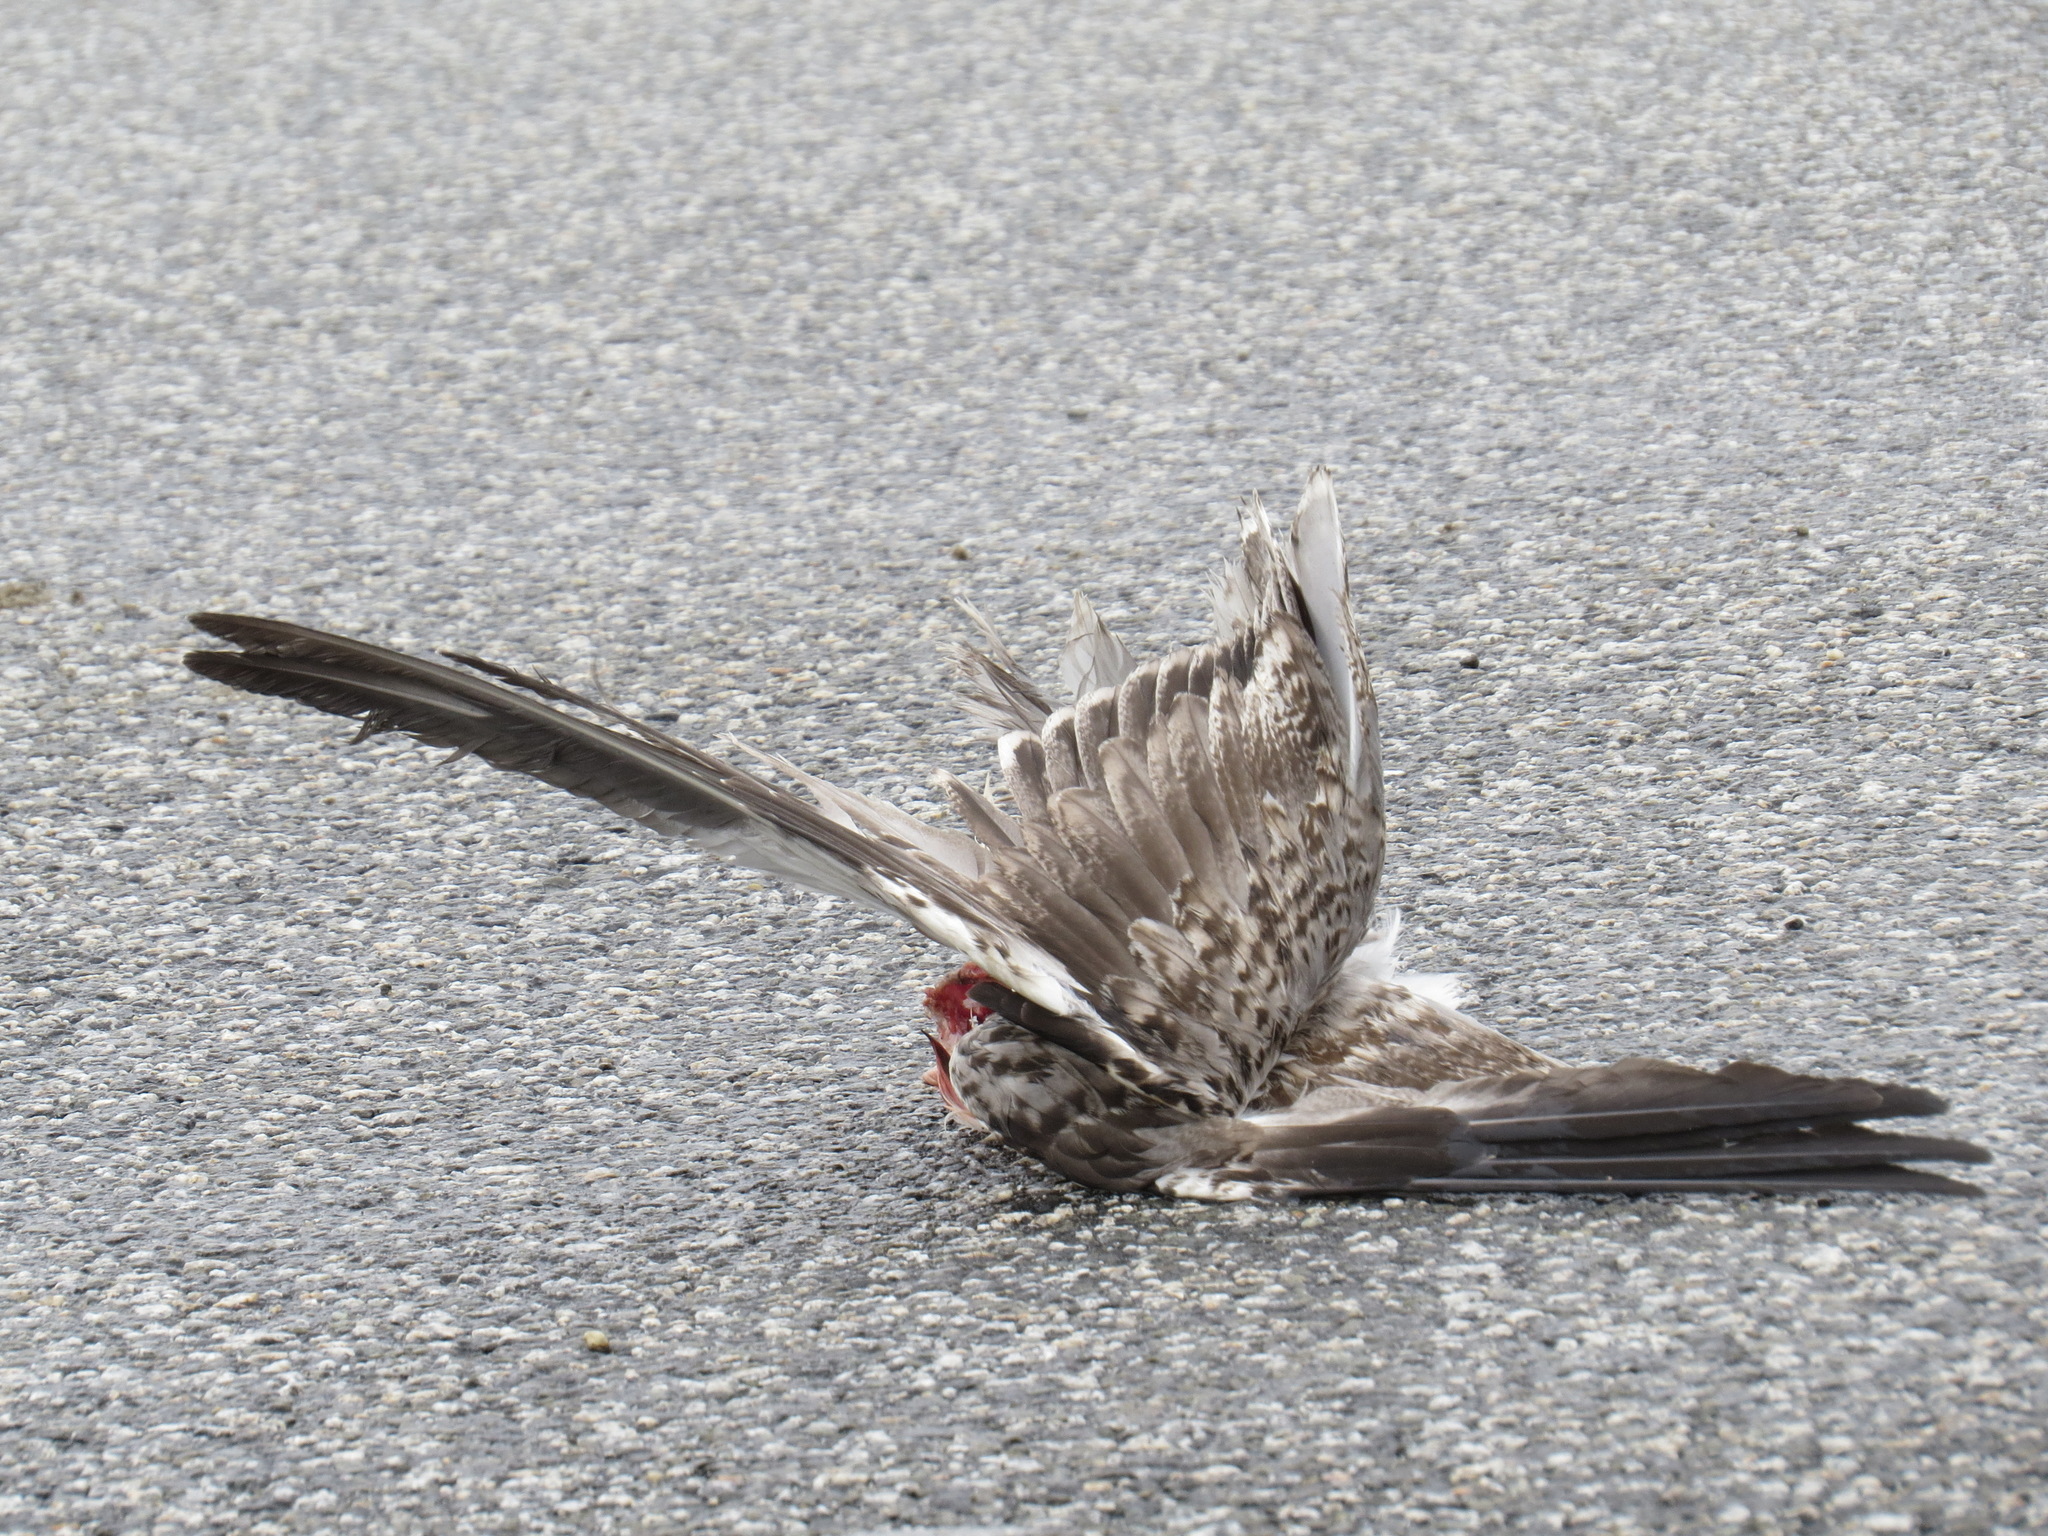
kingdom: Animalia
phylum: Chordata
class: Aves
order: Accipitriformes
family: Accipitridae
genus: Circus
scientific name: Circus cyaneus
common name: Hen harrier
